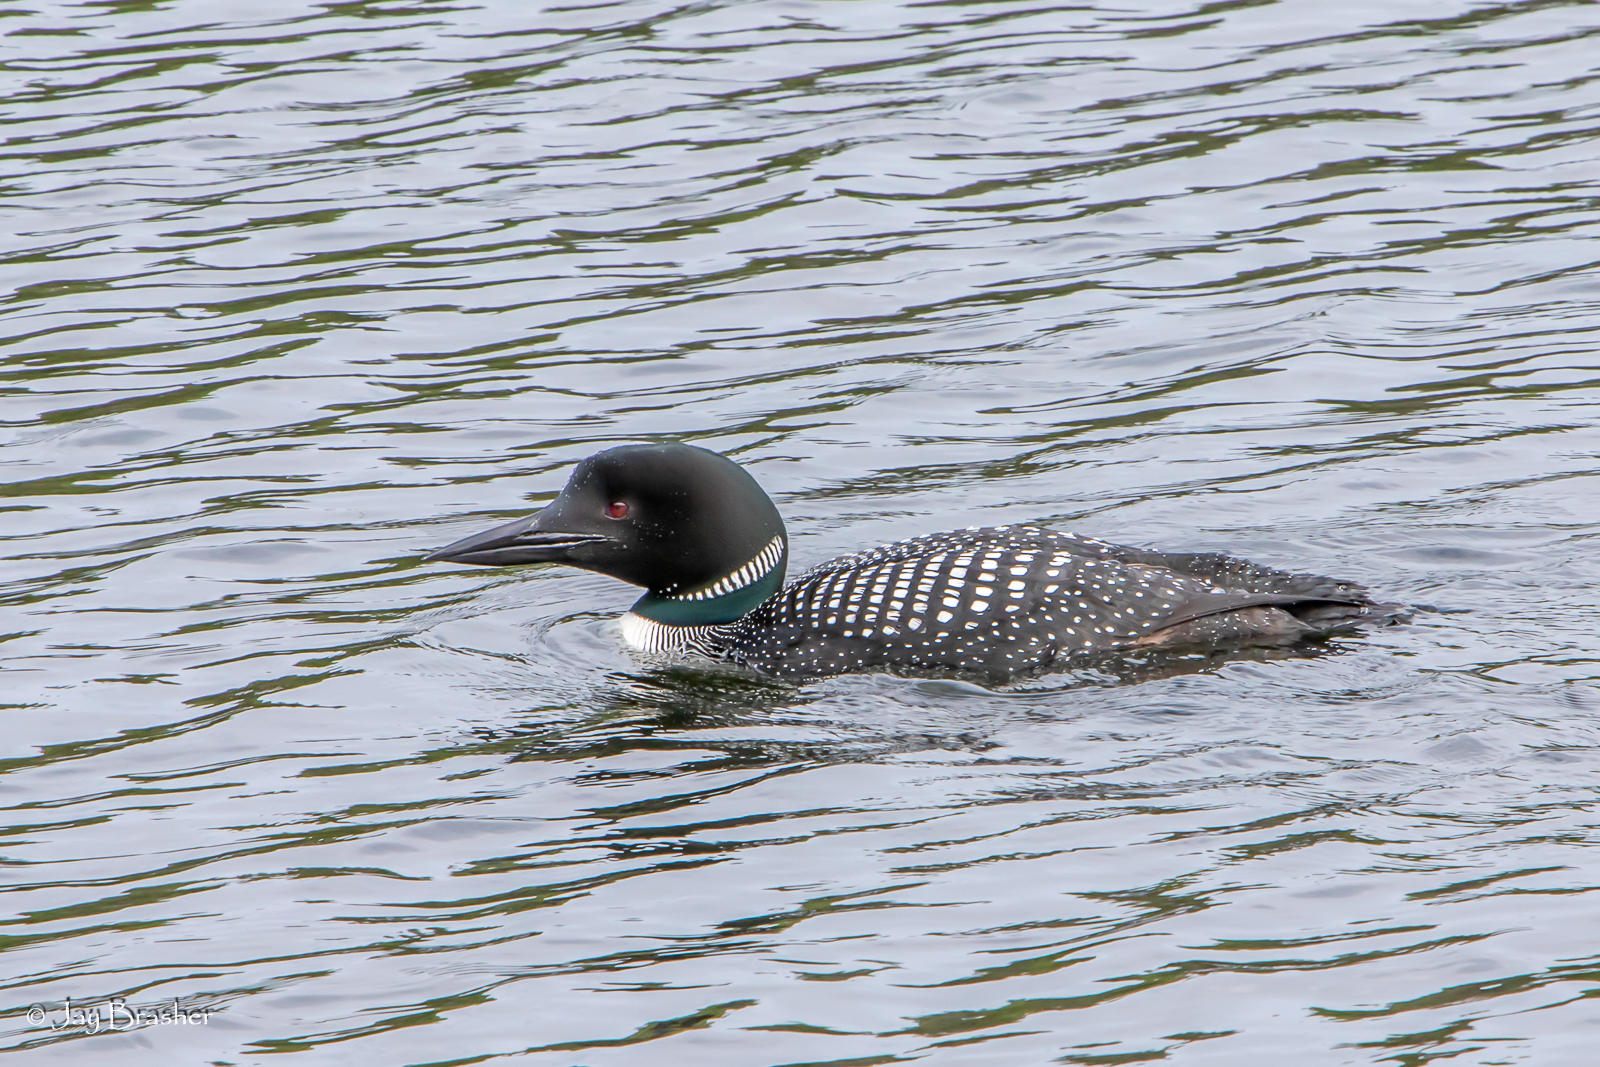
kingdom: Animalia
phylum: Chordata
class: Aves
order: Gaviiformes
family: Gaviidae
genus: Gavia
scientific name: Gavia immer
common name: Common loon
